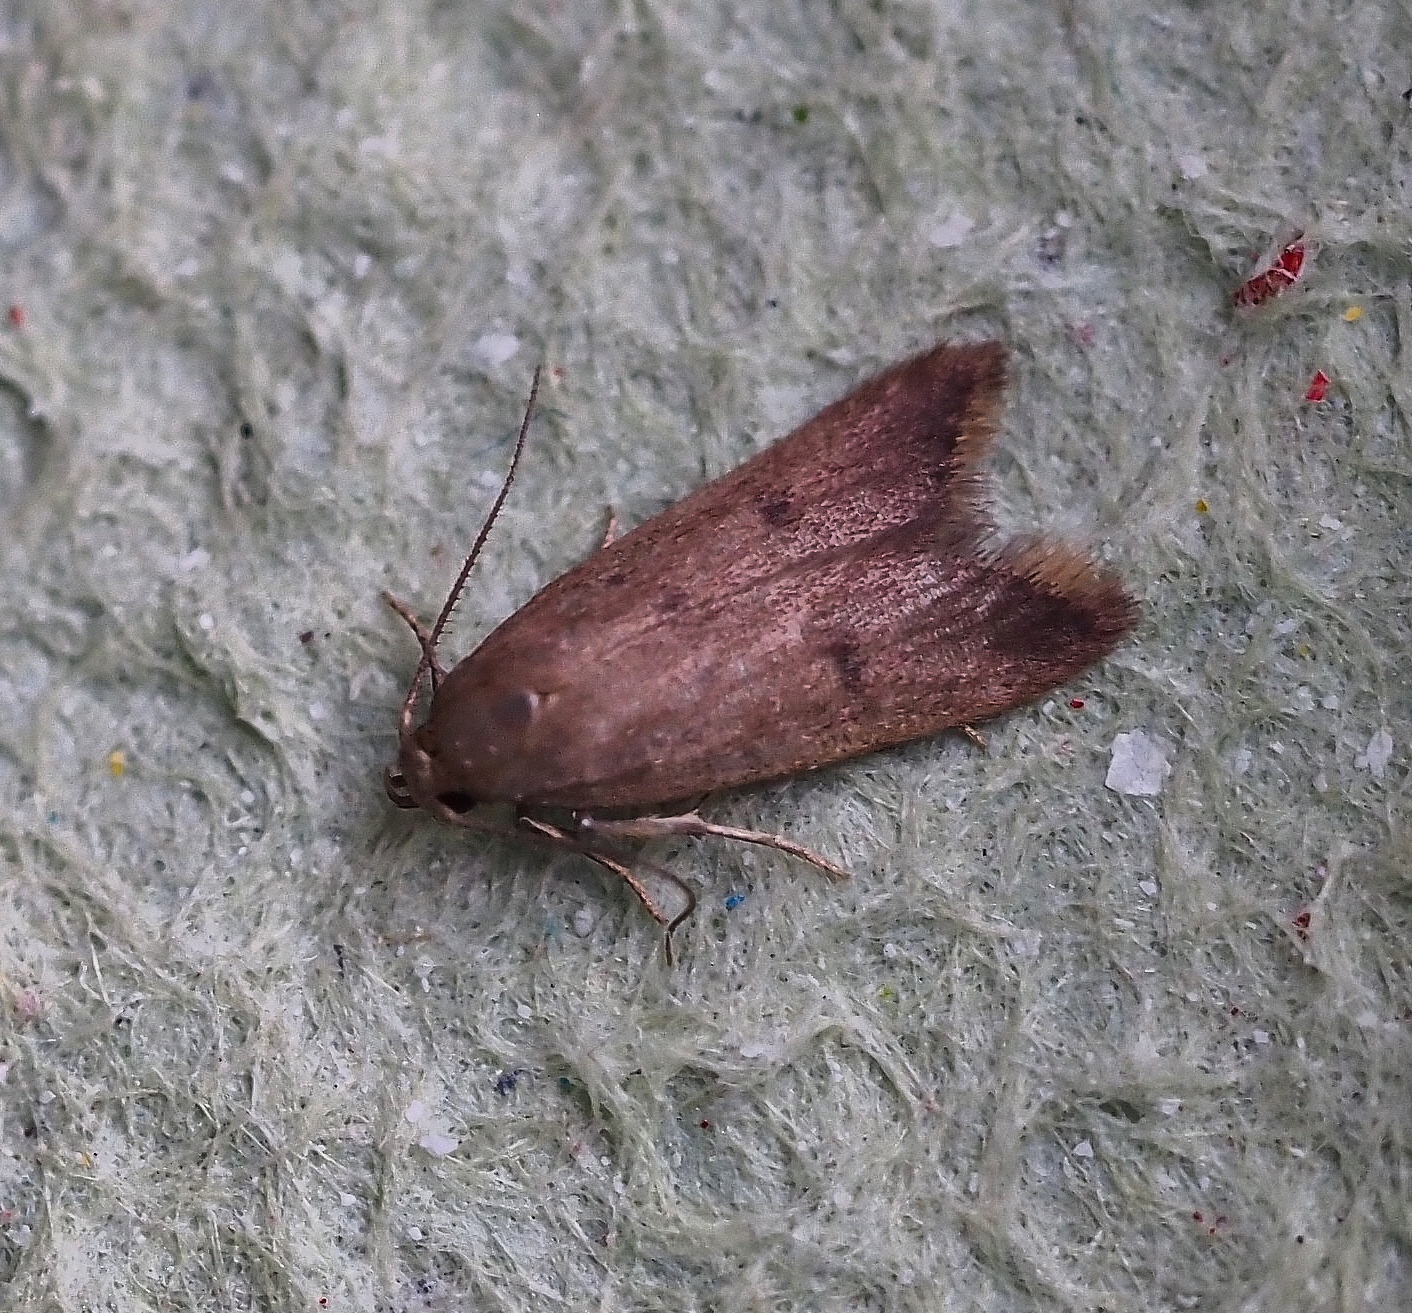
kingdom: Animalia
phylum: Arthropoda
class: Insecta
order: Lepidoptera
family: Oecophoridae
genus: Tachystola
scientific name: Tachystola acroxantha
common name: Ruddy streak
